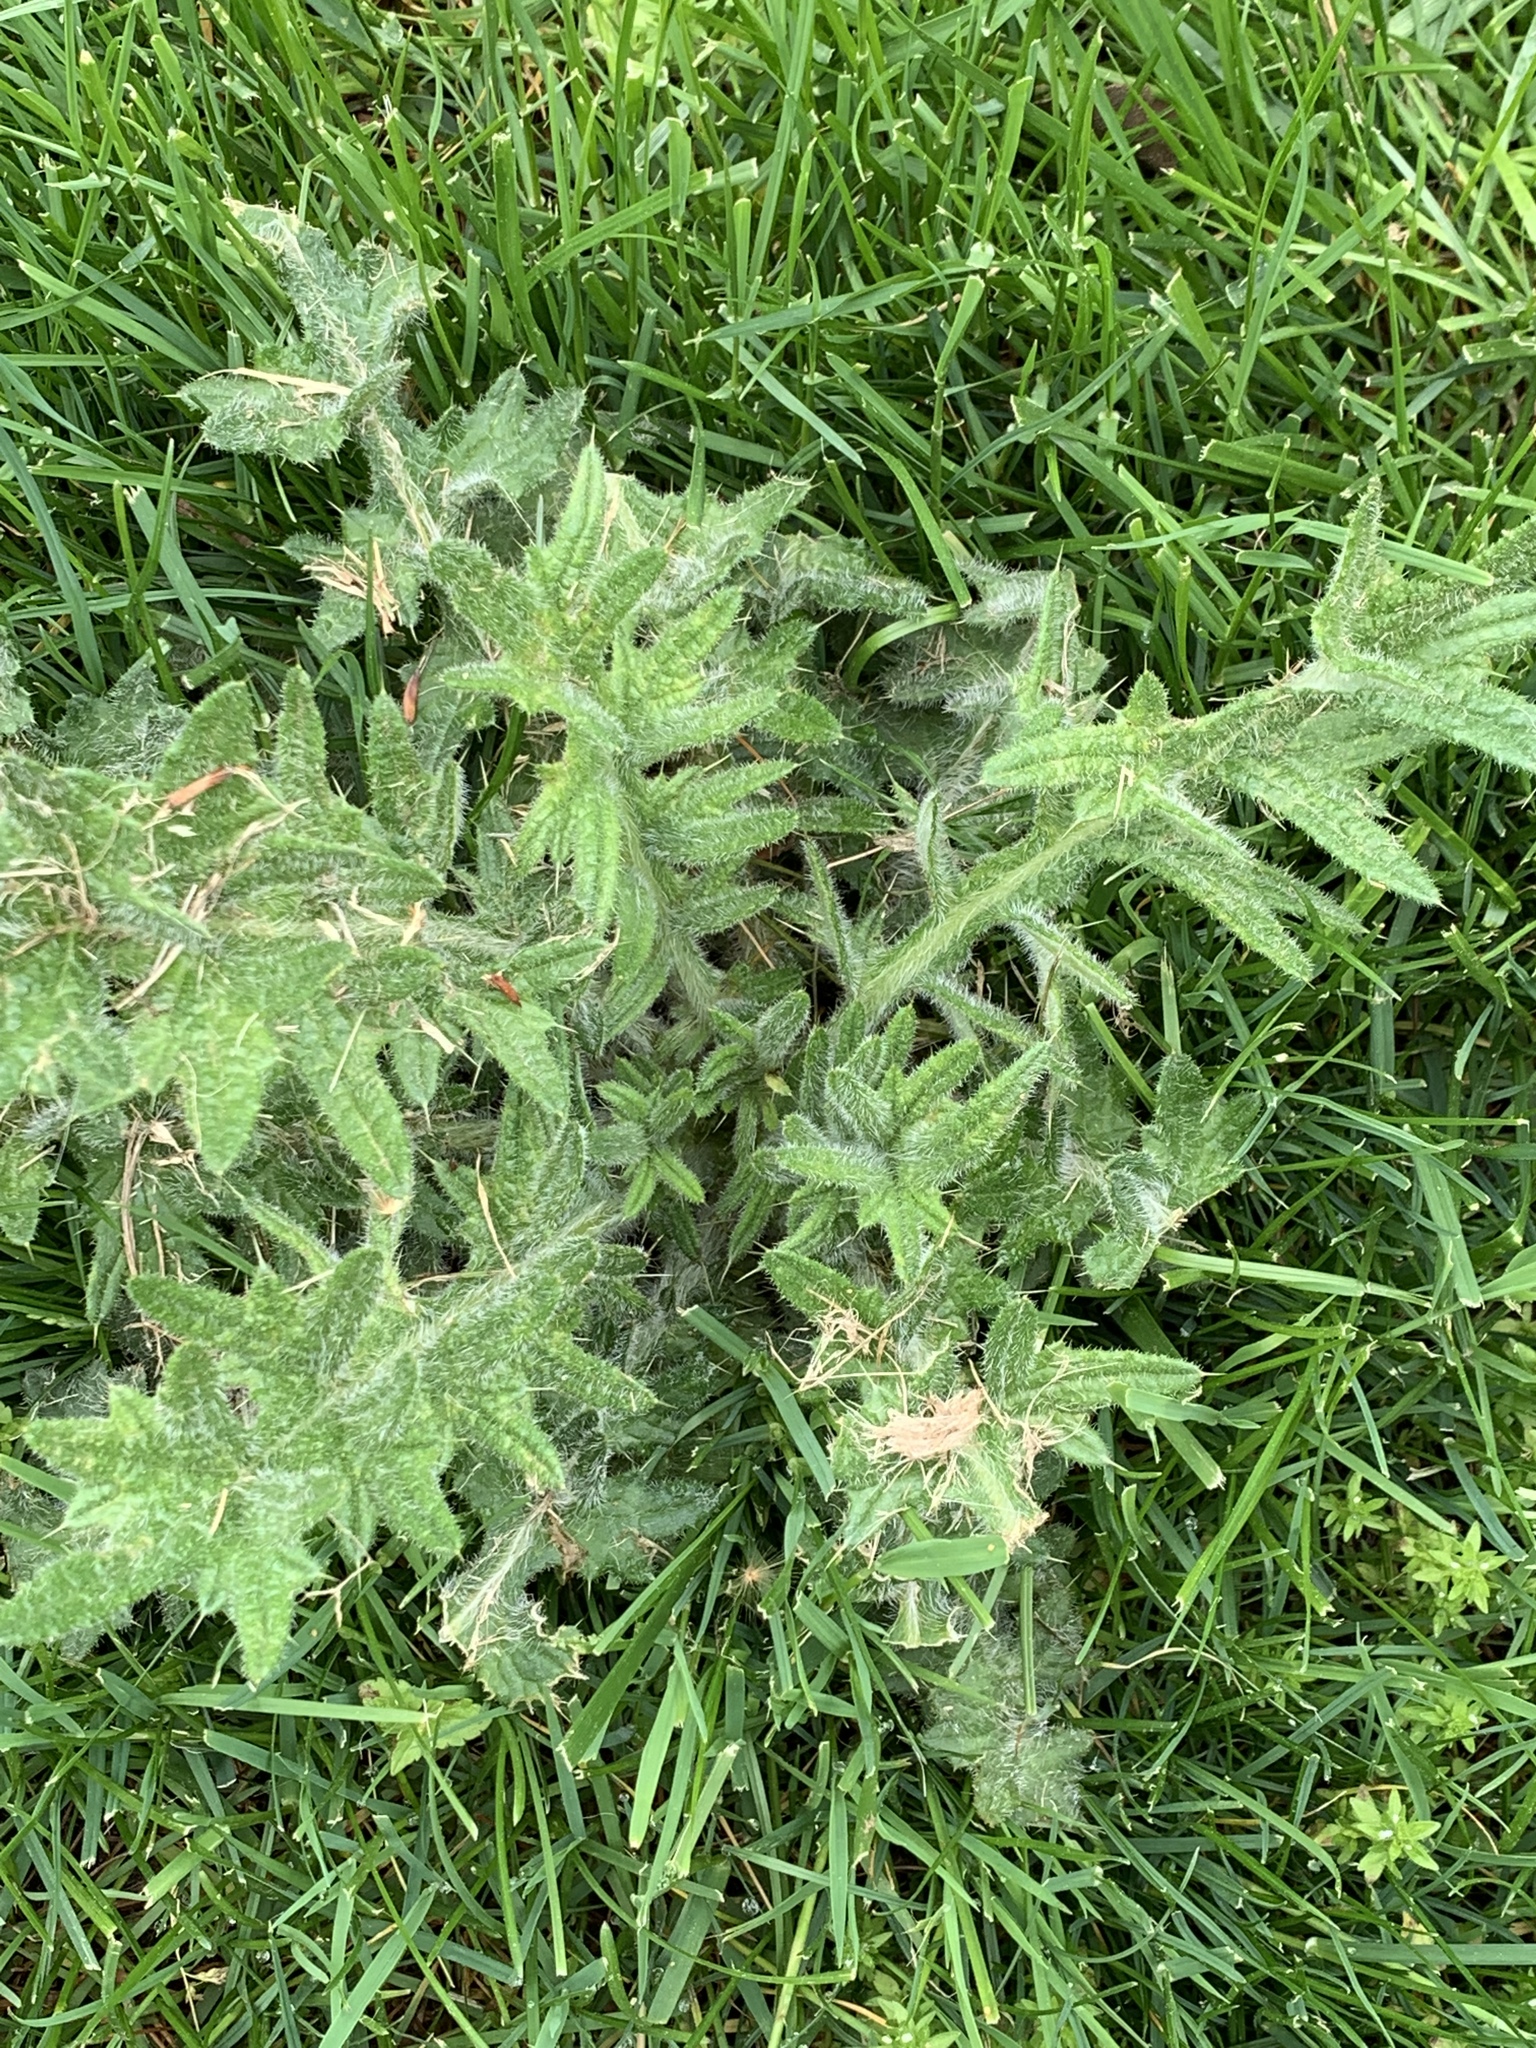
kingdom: Plantae
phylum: Tracheophyta
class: Magnoliopsida
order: Asterales
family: Asteraceae
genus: Cirsium
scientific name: Cirsium vulgare
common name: Bull thistle
